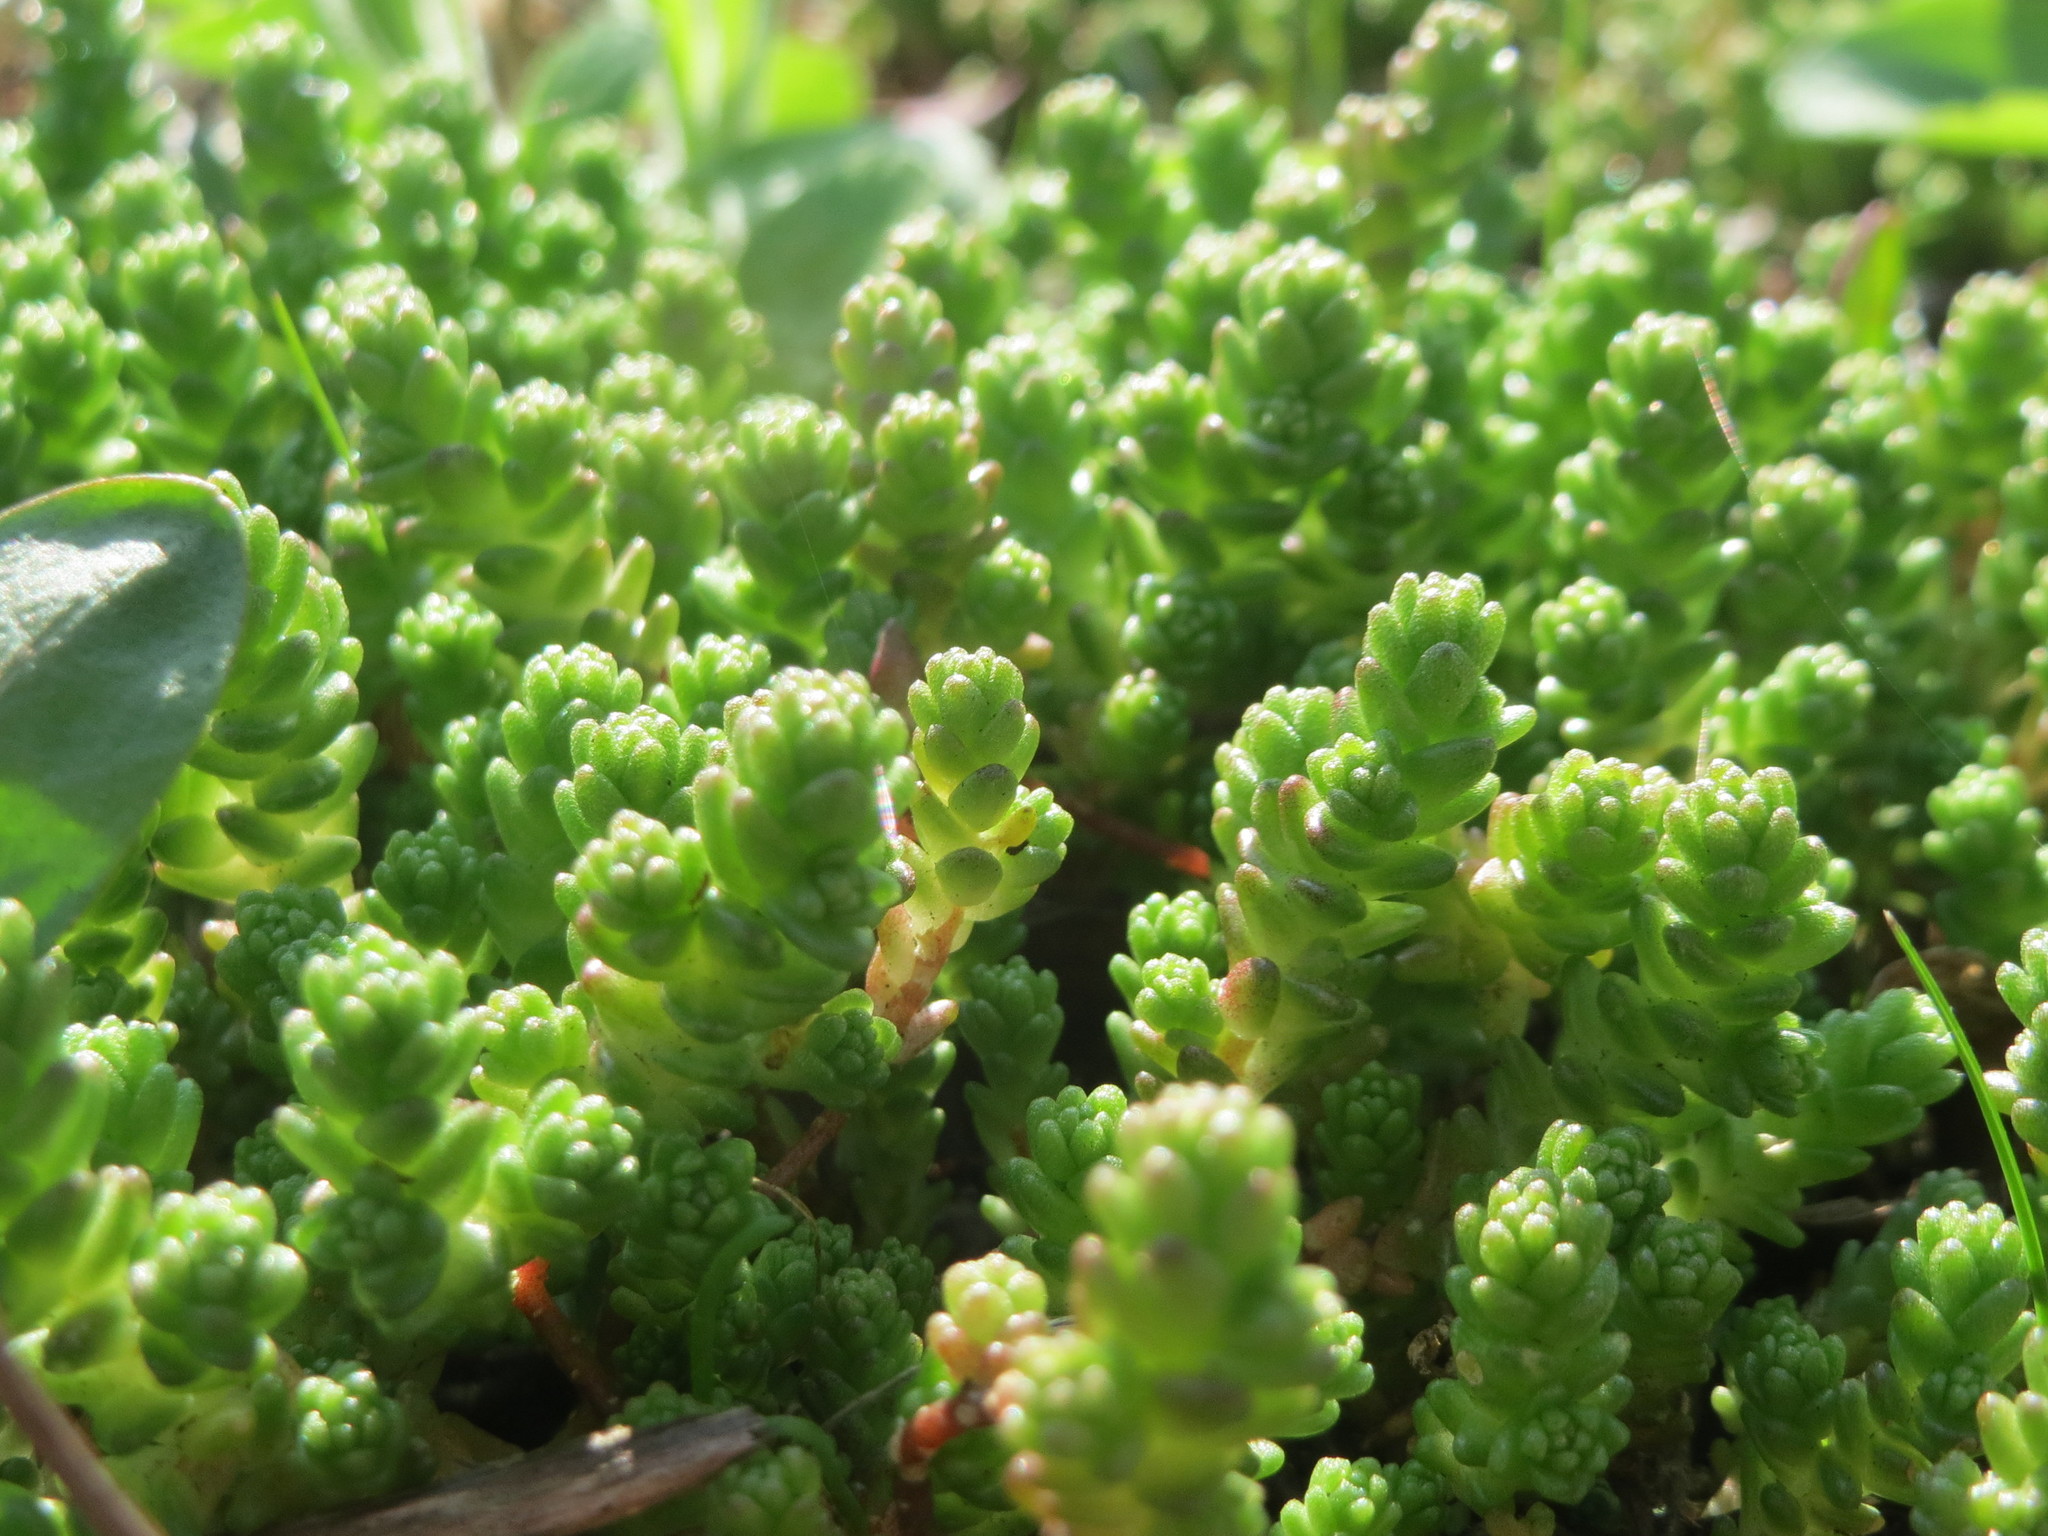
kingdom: Plantae
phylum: Tracheophyta
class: Magnoliopsida
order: Saxifragales
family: Crassulaceae
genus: Sedum
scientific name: Sedum acre
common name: Biting stonecrop
